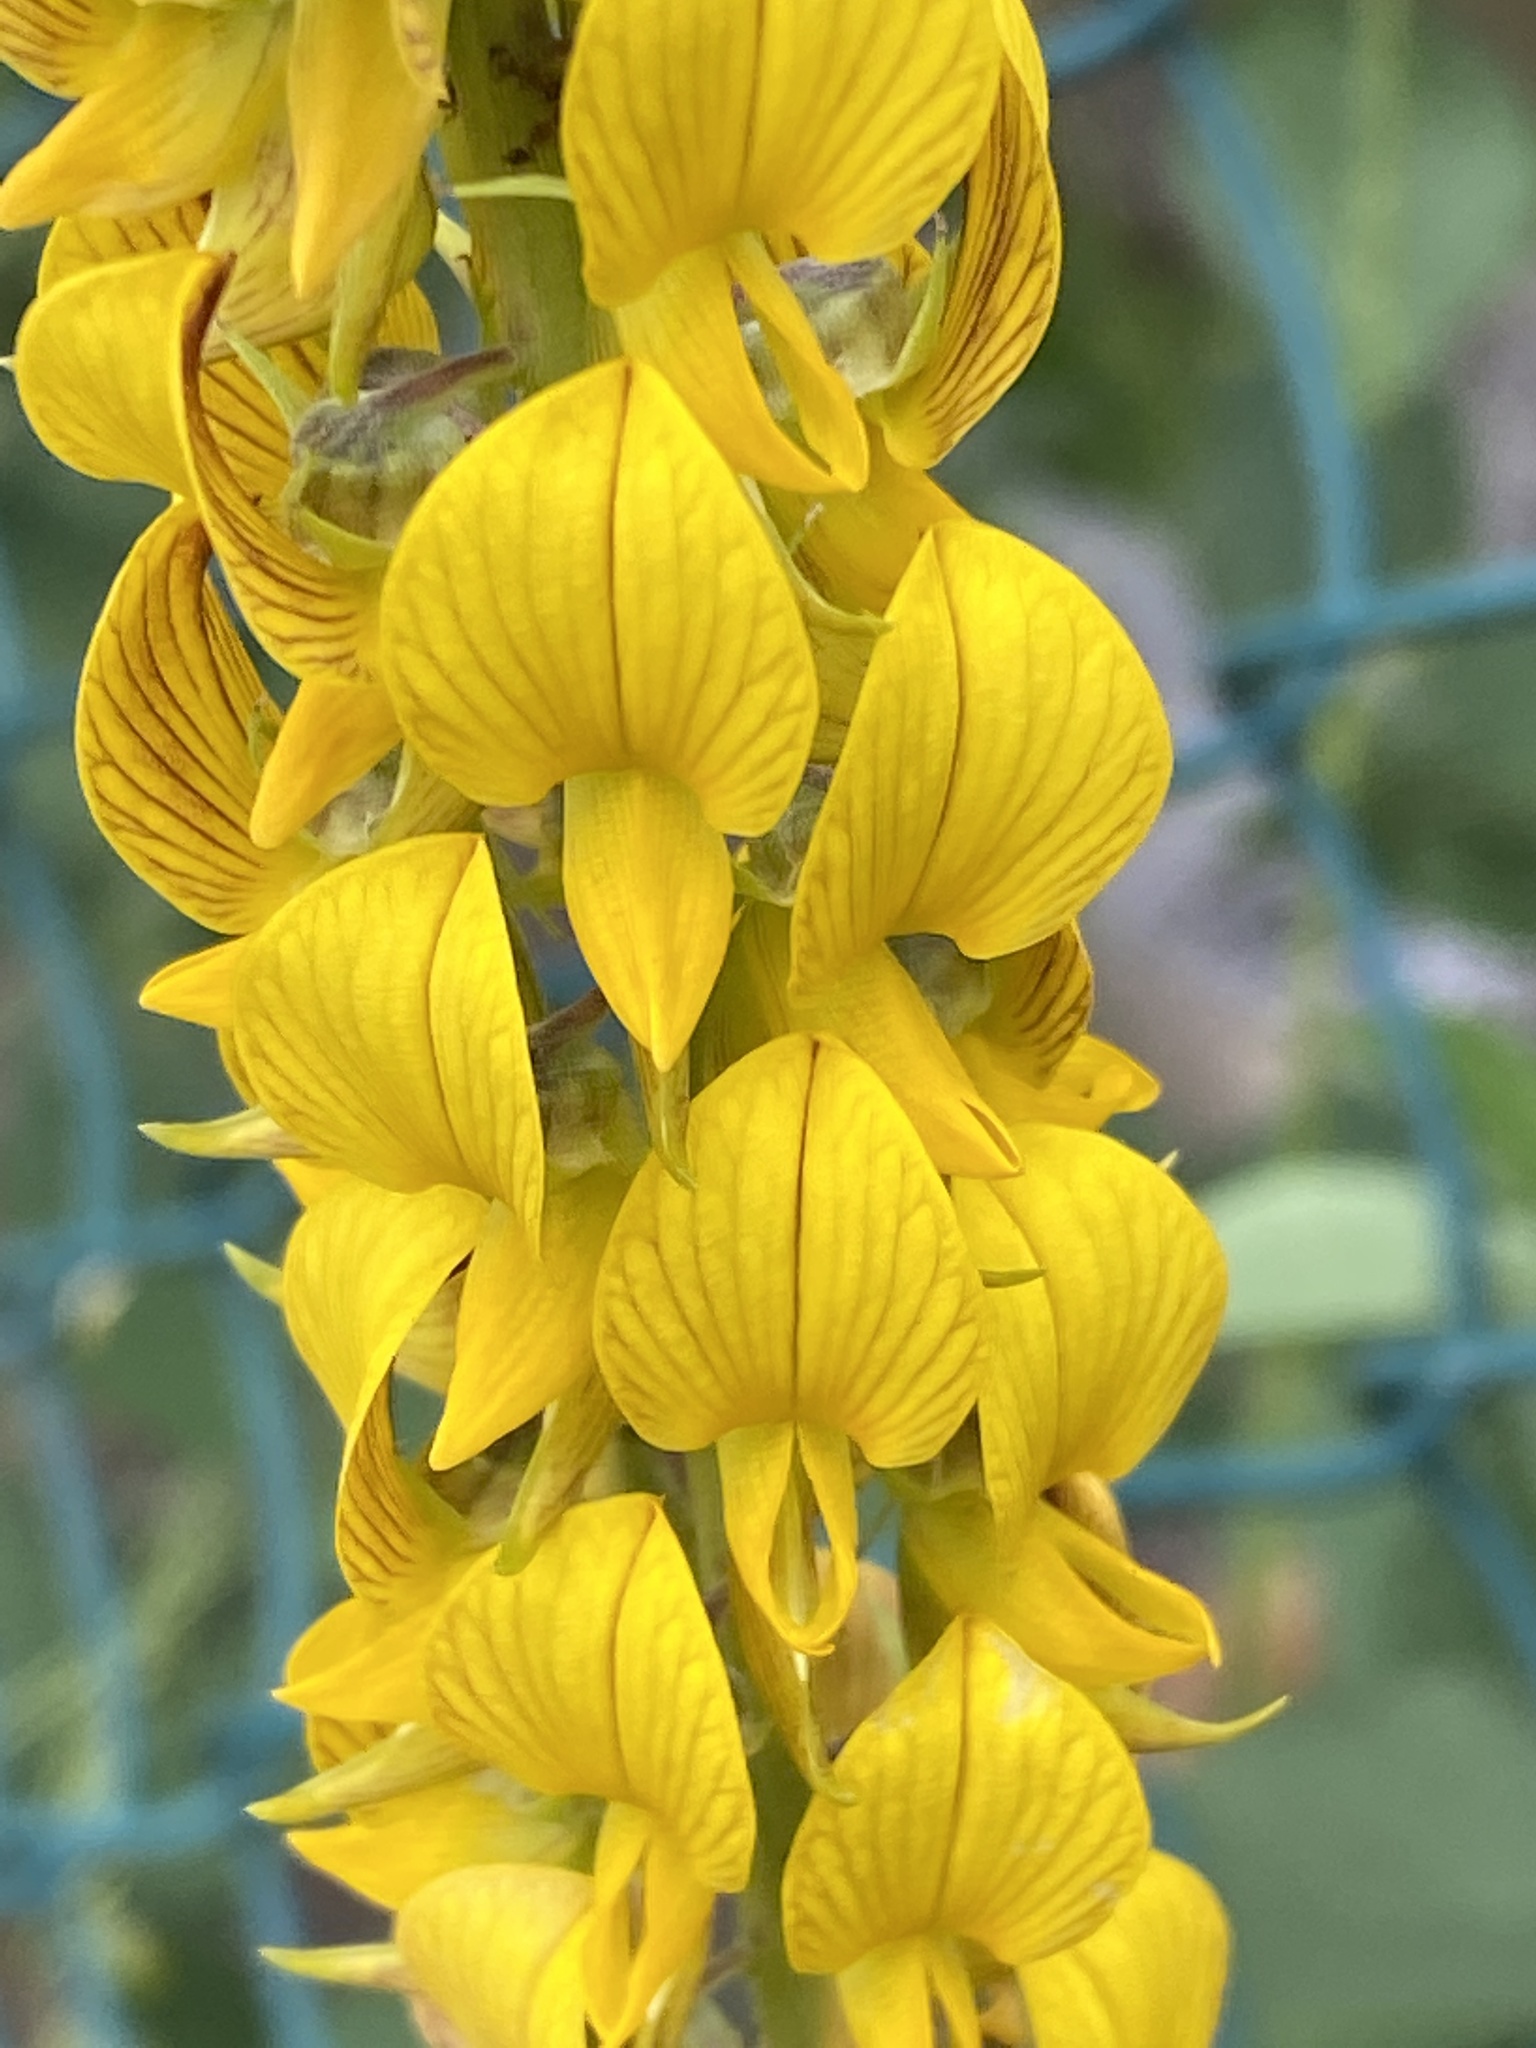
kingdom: Plantae
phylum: Tracheophyta
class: Magnoliopsida
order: Fabales
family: Fabaceae
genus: Crotalaria
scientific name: Crotalaria pallida
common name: Smooth rattlebox
